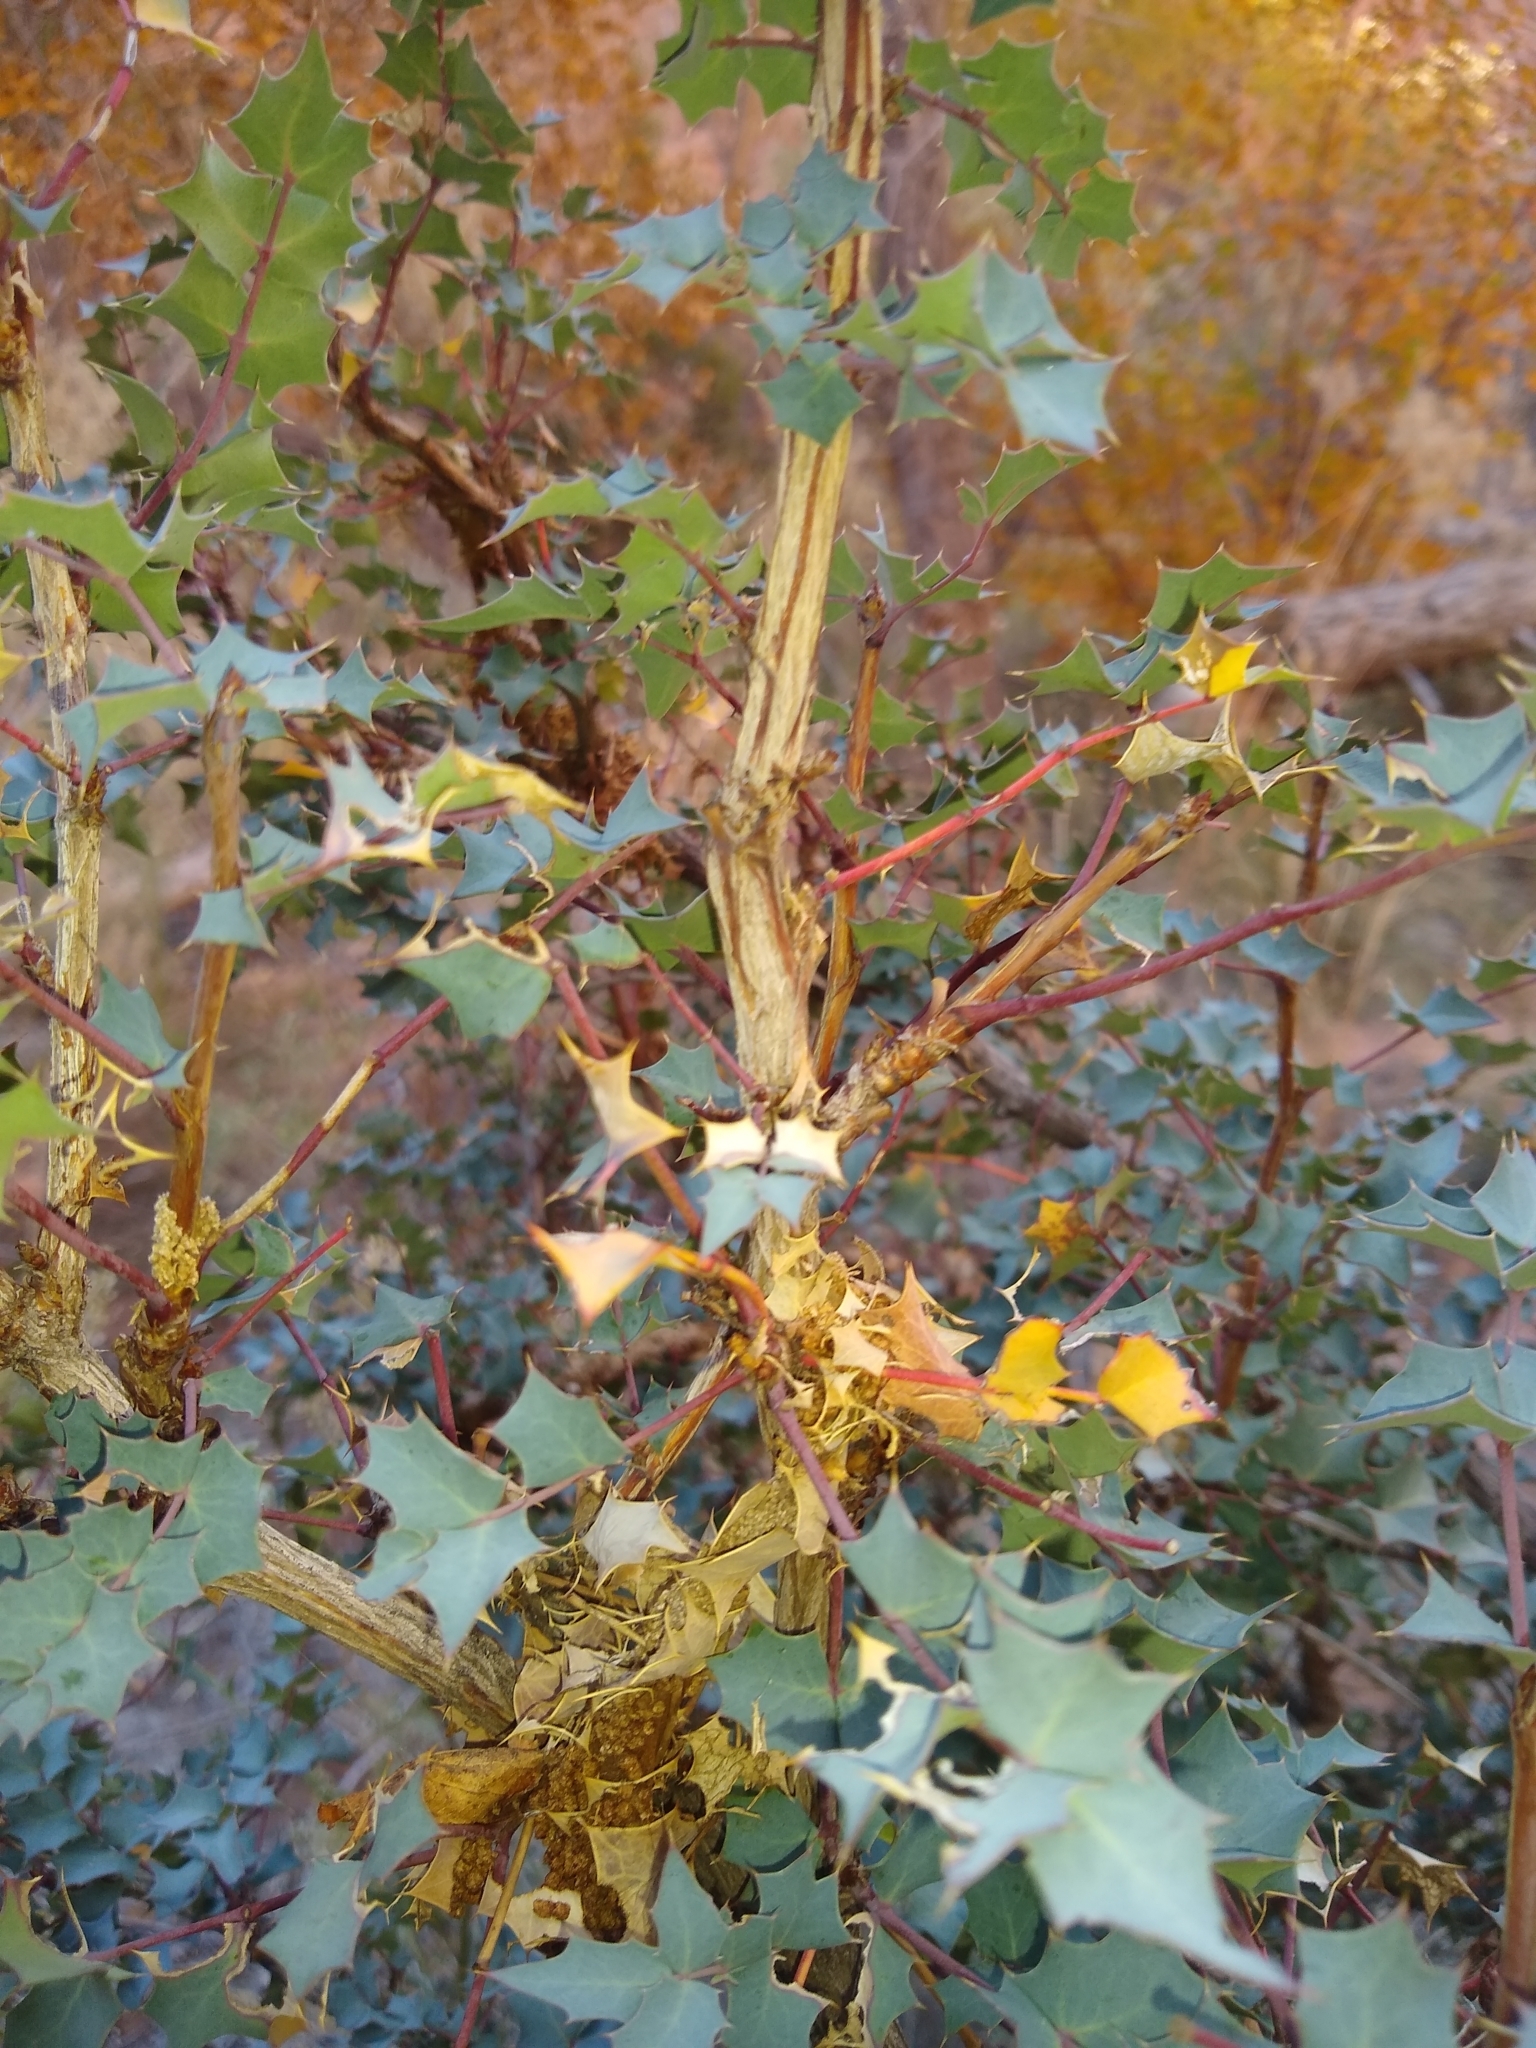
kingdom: Plantae
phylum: Tracheophyta
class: Magnoliopsida
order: Ranunculales
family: Berberidaceae
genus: Alloberberis
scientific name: Alloberberis fremontii
